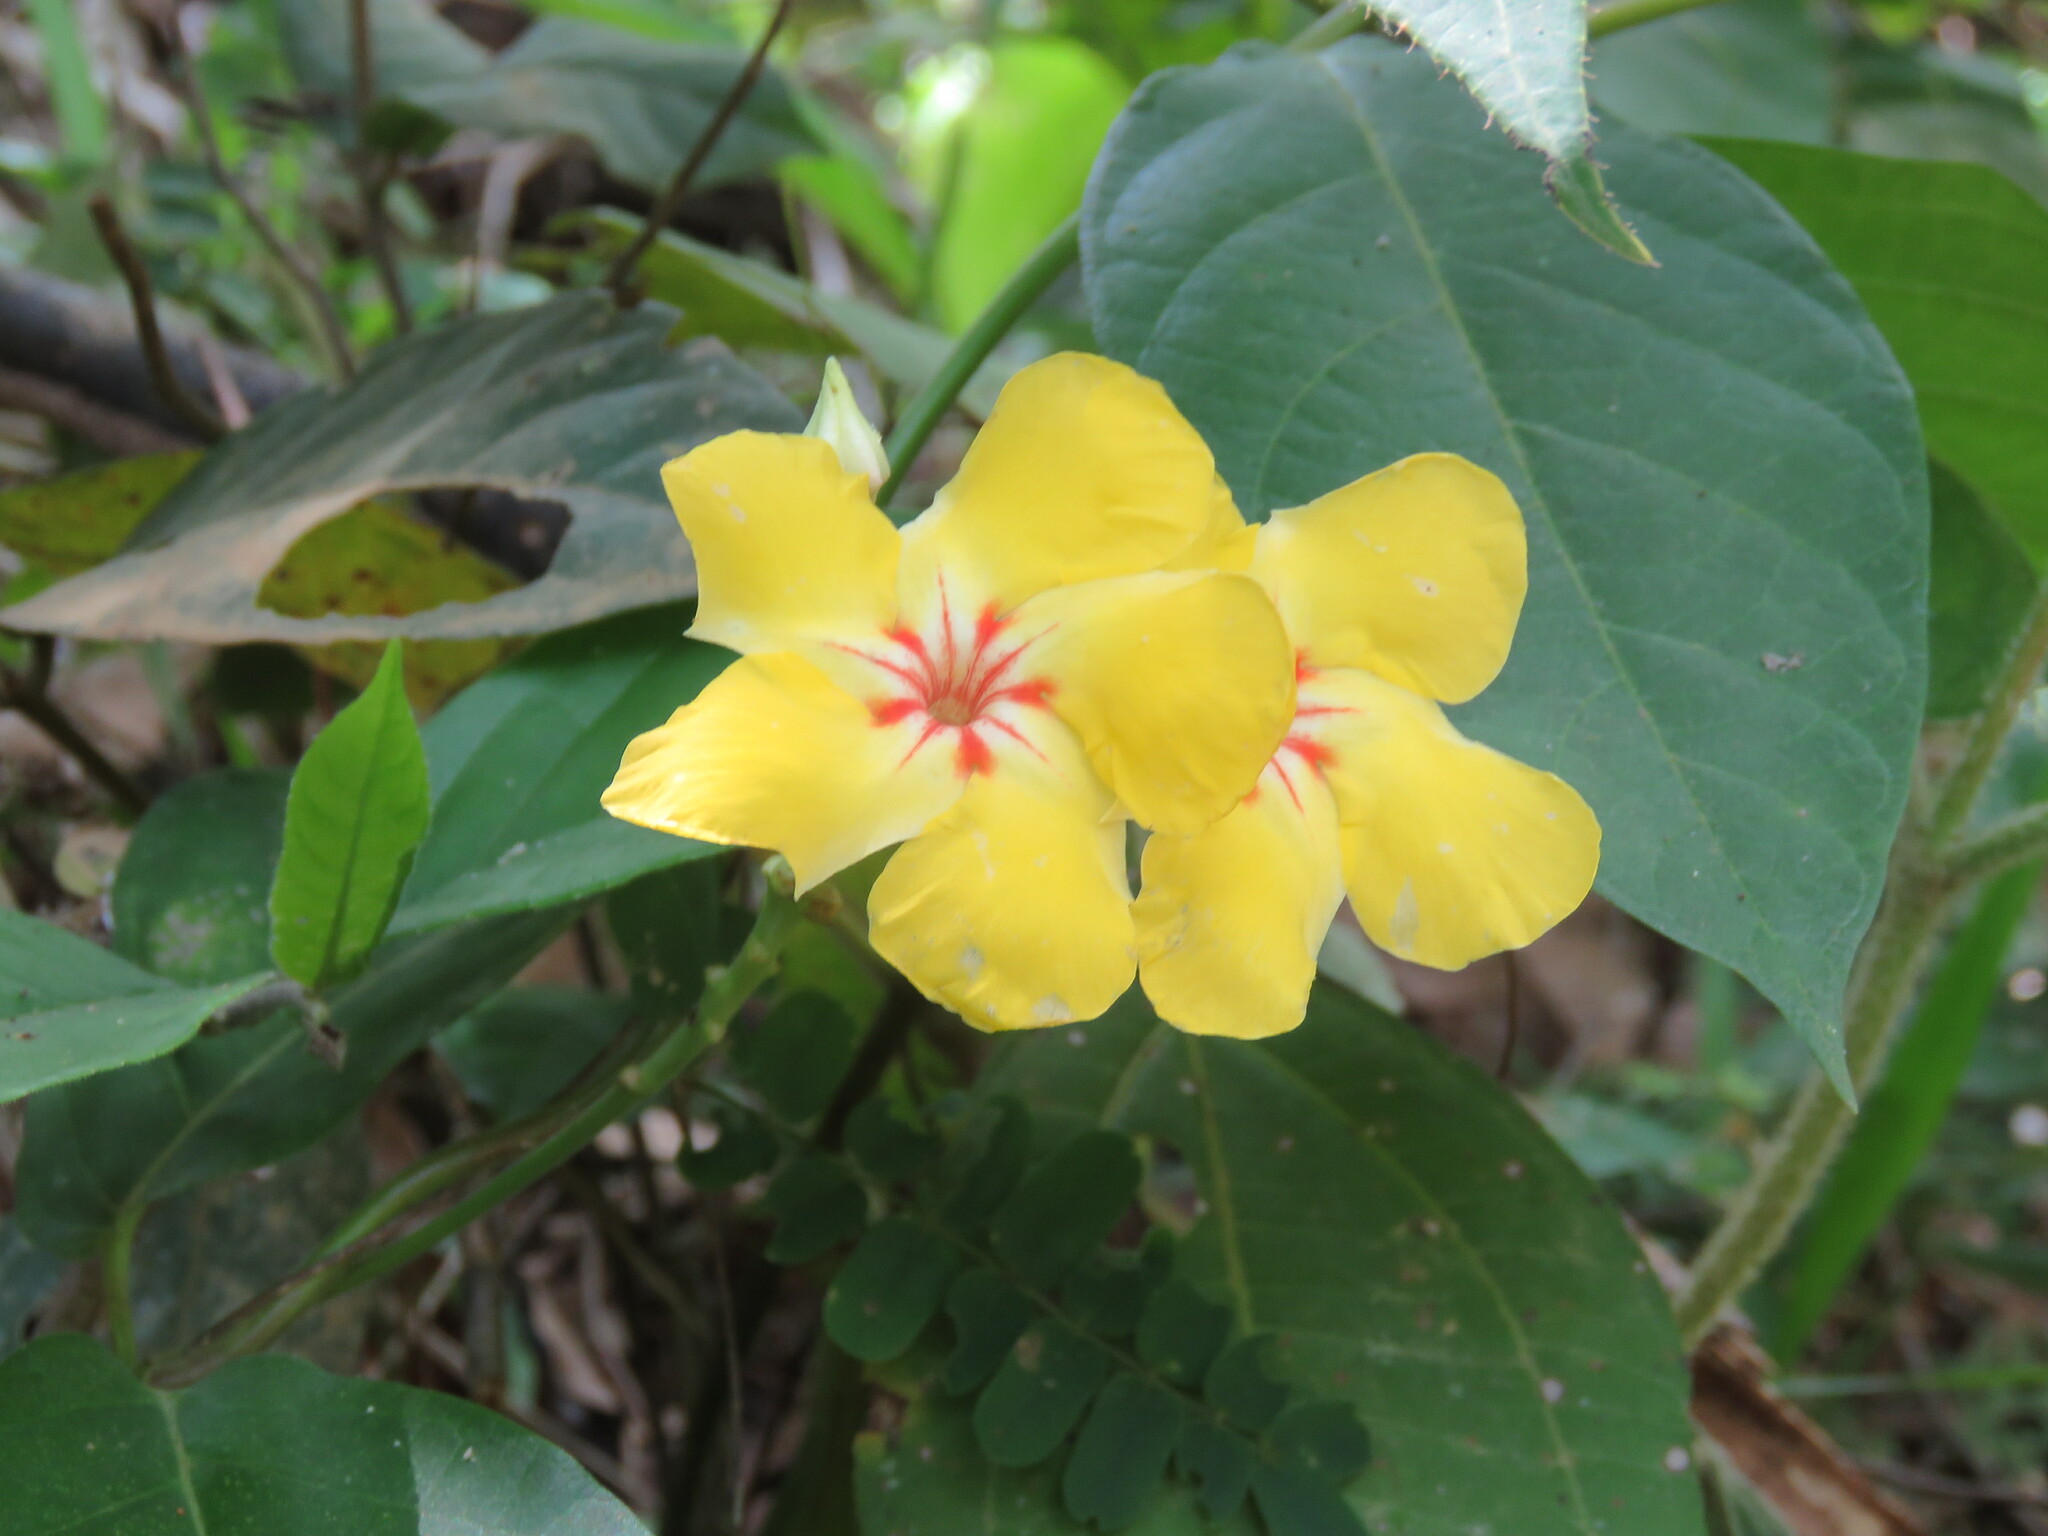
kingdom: Plantae
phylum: Tracheophyta
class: Magnoliopsida
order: Gentianales
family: Apocynaceae
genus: Mandevilla
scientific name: Mandevilla rugellosa
